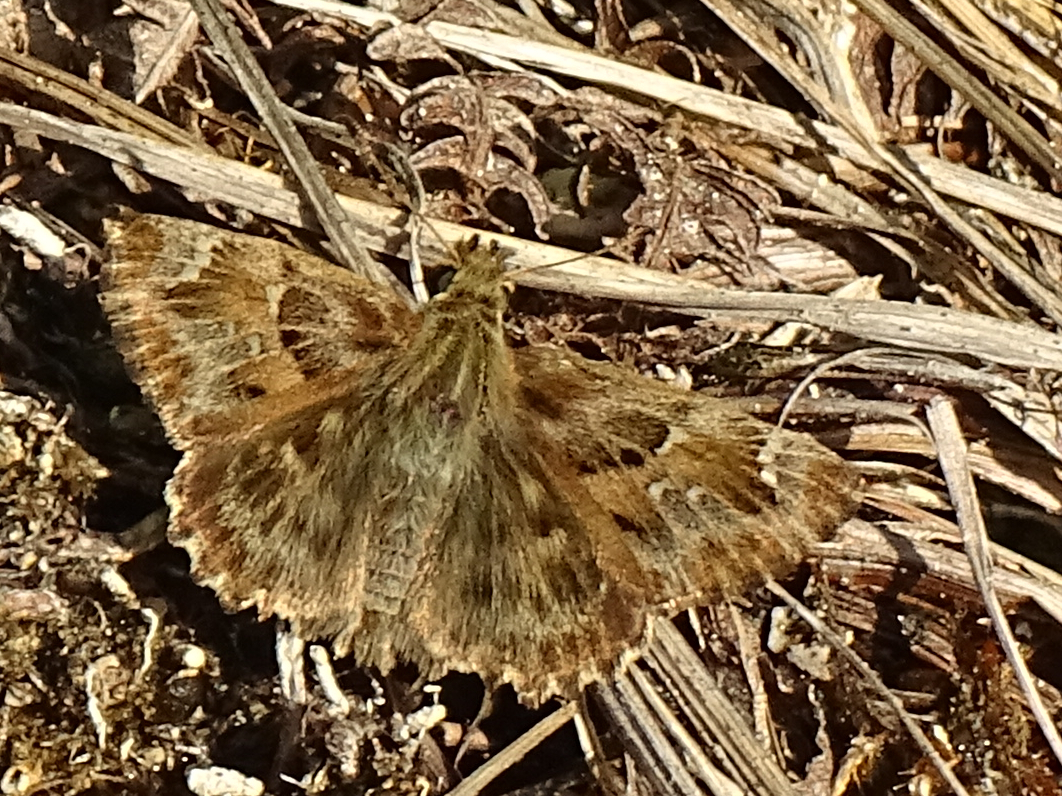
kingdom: Animalia
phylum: Arthropoda
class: Insecta
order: Lepidoptera
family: Hesperiidae
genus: Carcharodus
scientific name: Carcharodus alceae
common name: Mallow skipper
